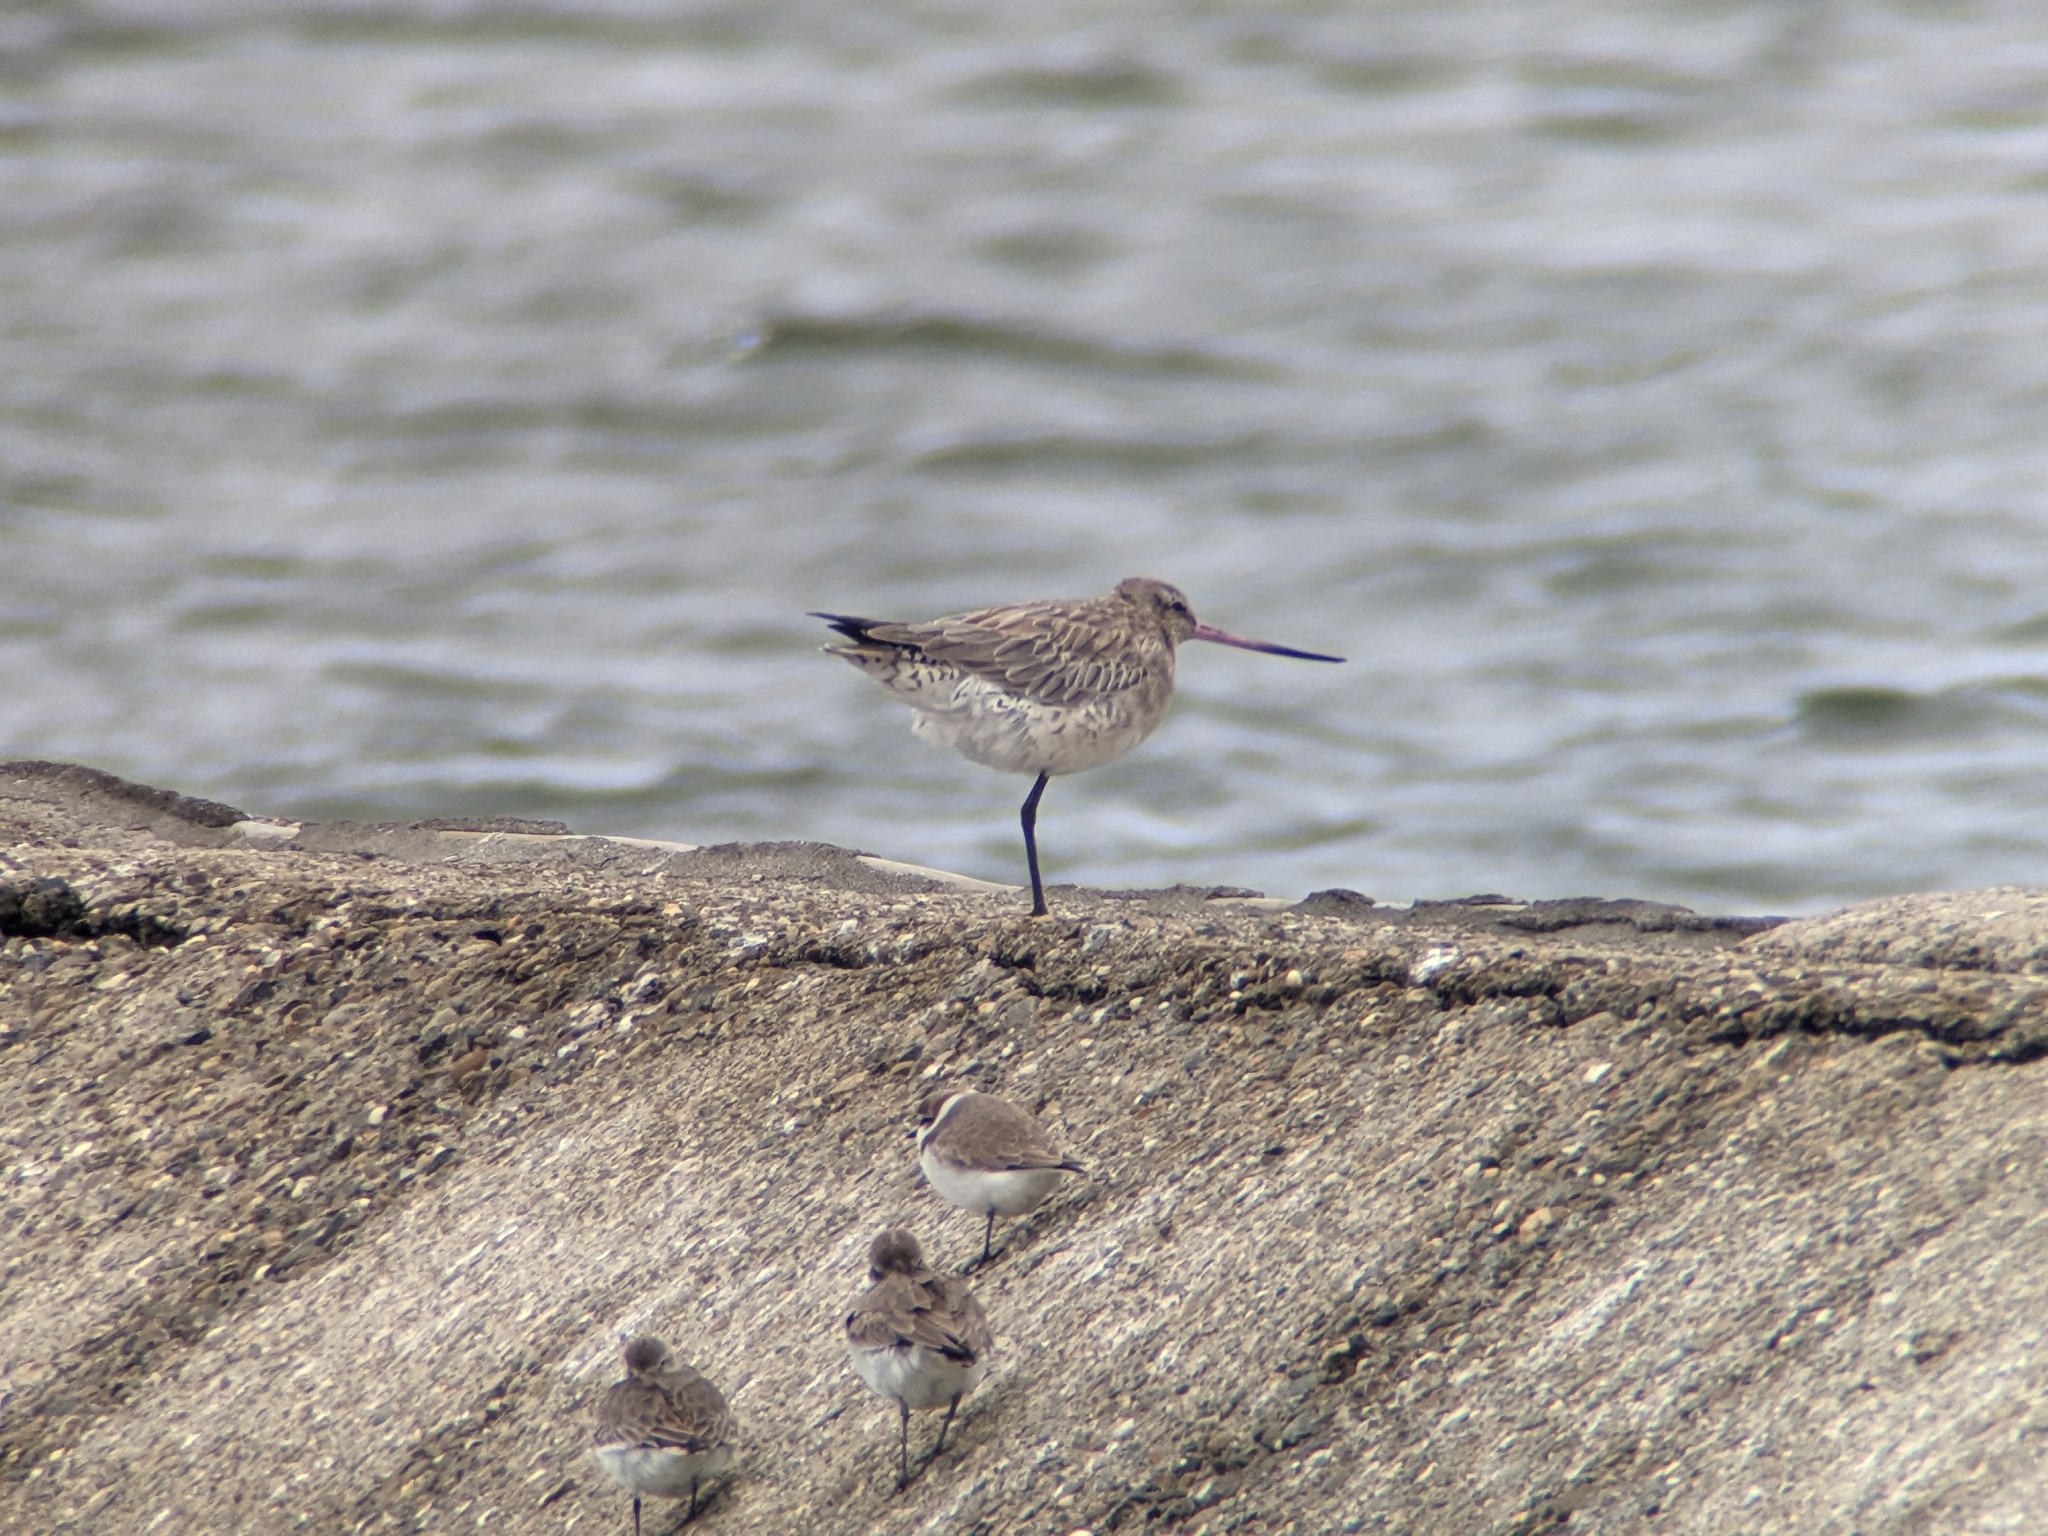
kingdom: Animalia
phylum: Chordata
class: Aves
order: Charadriiformes
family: Scolopacidae
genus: Limosa
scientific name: Limosa lapponica
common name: Bar-tailed godwit
